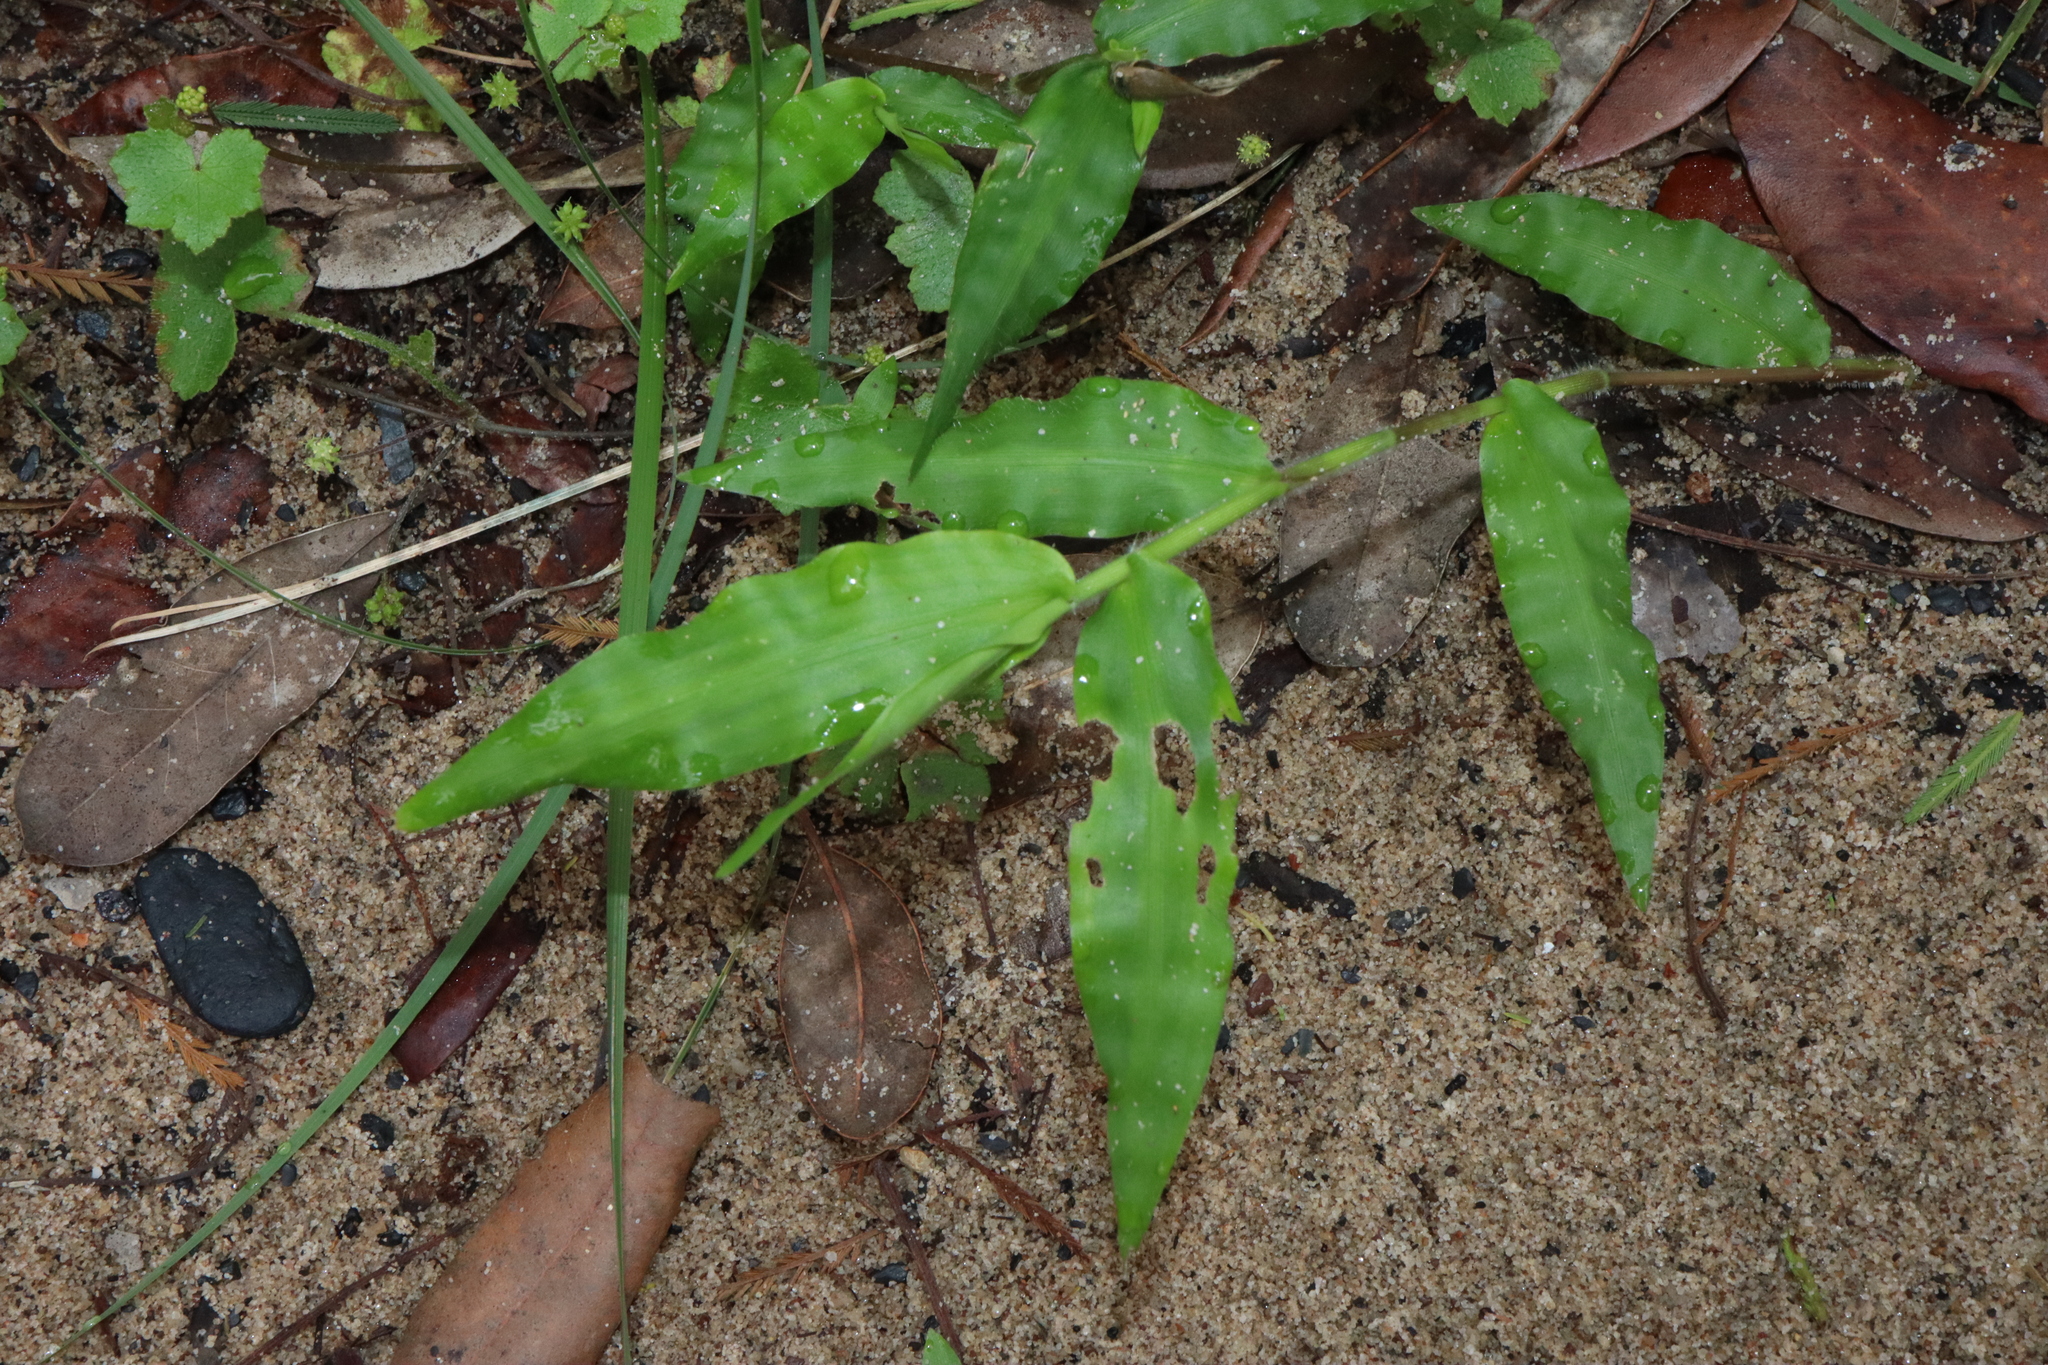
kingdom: Plantae
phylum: Tracheophyta
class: Liliopsida
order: Poales
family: Poaceae
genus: Oplismenus
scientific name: Oplismenus hirtellus
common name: Basketgrass
